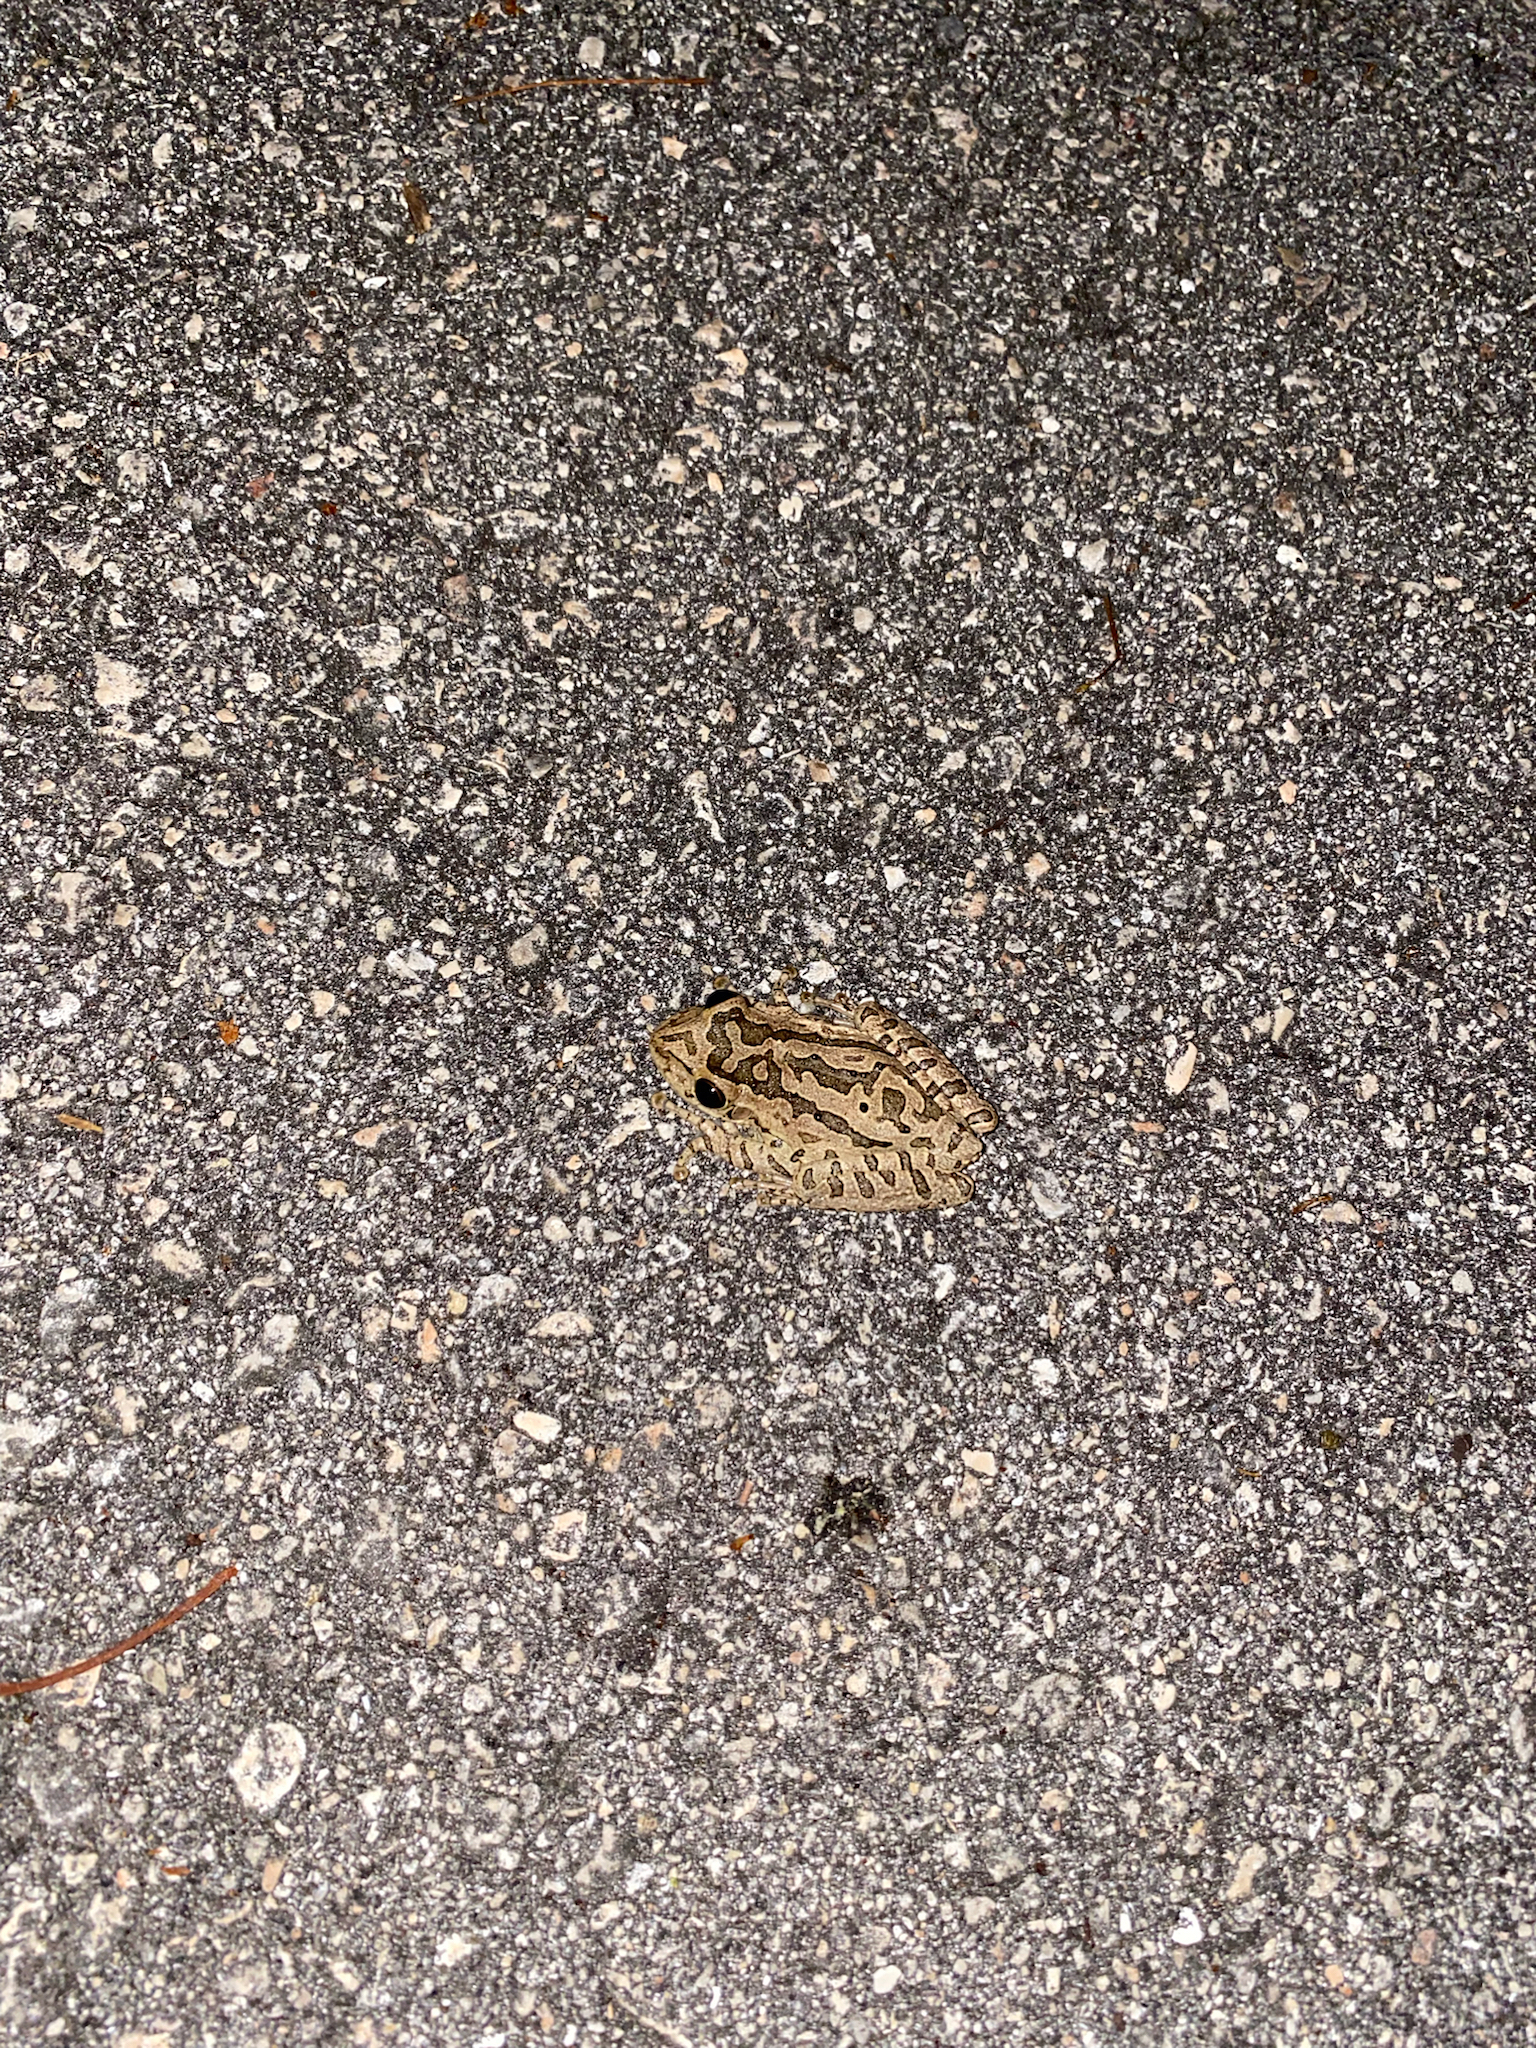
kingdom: Animalia
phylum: Chordata
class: Amphibia
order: Anura
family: Hylidae
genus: Osteopilus
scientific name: Osteopilus septentrionalis
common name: Cuban treefrog
